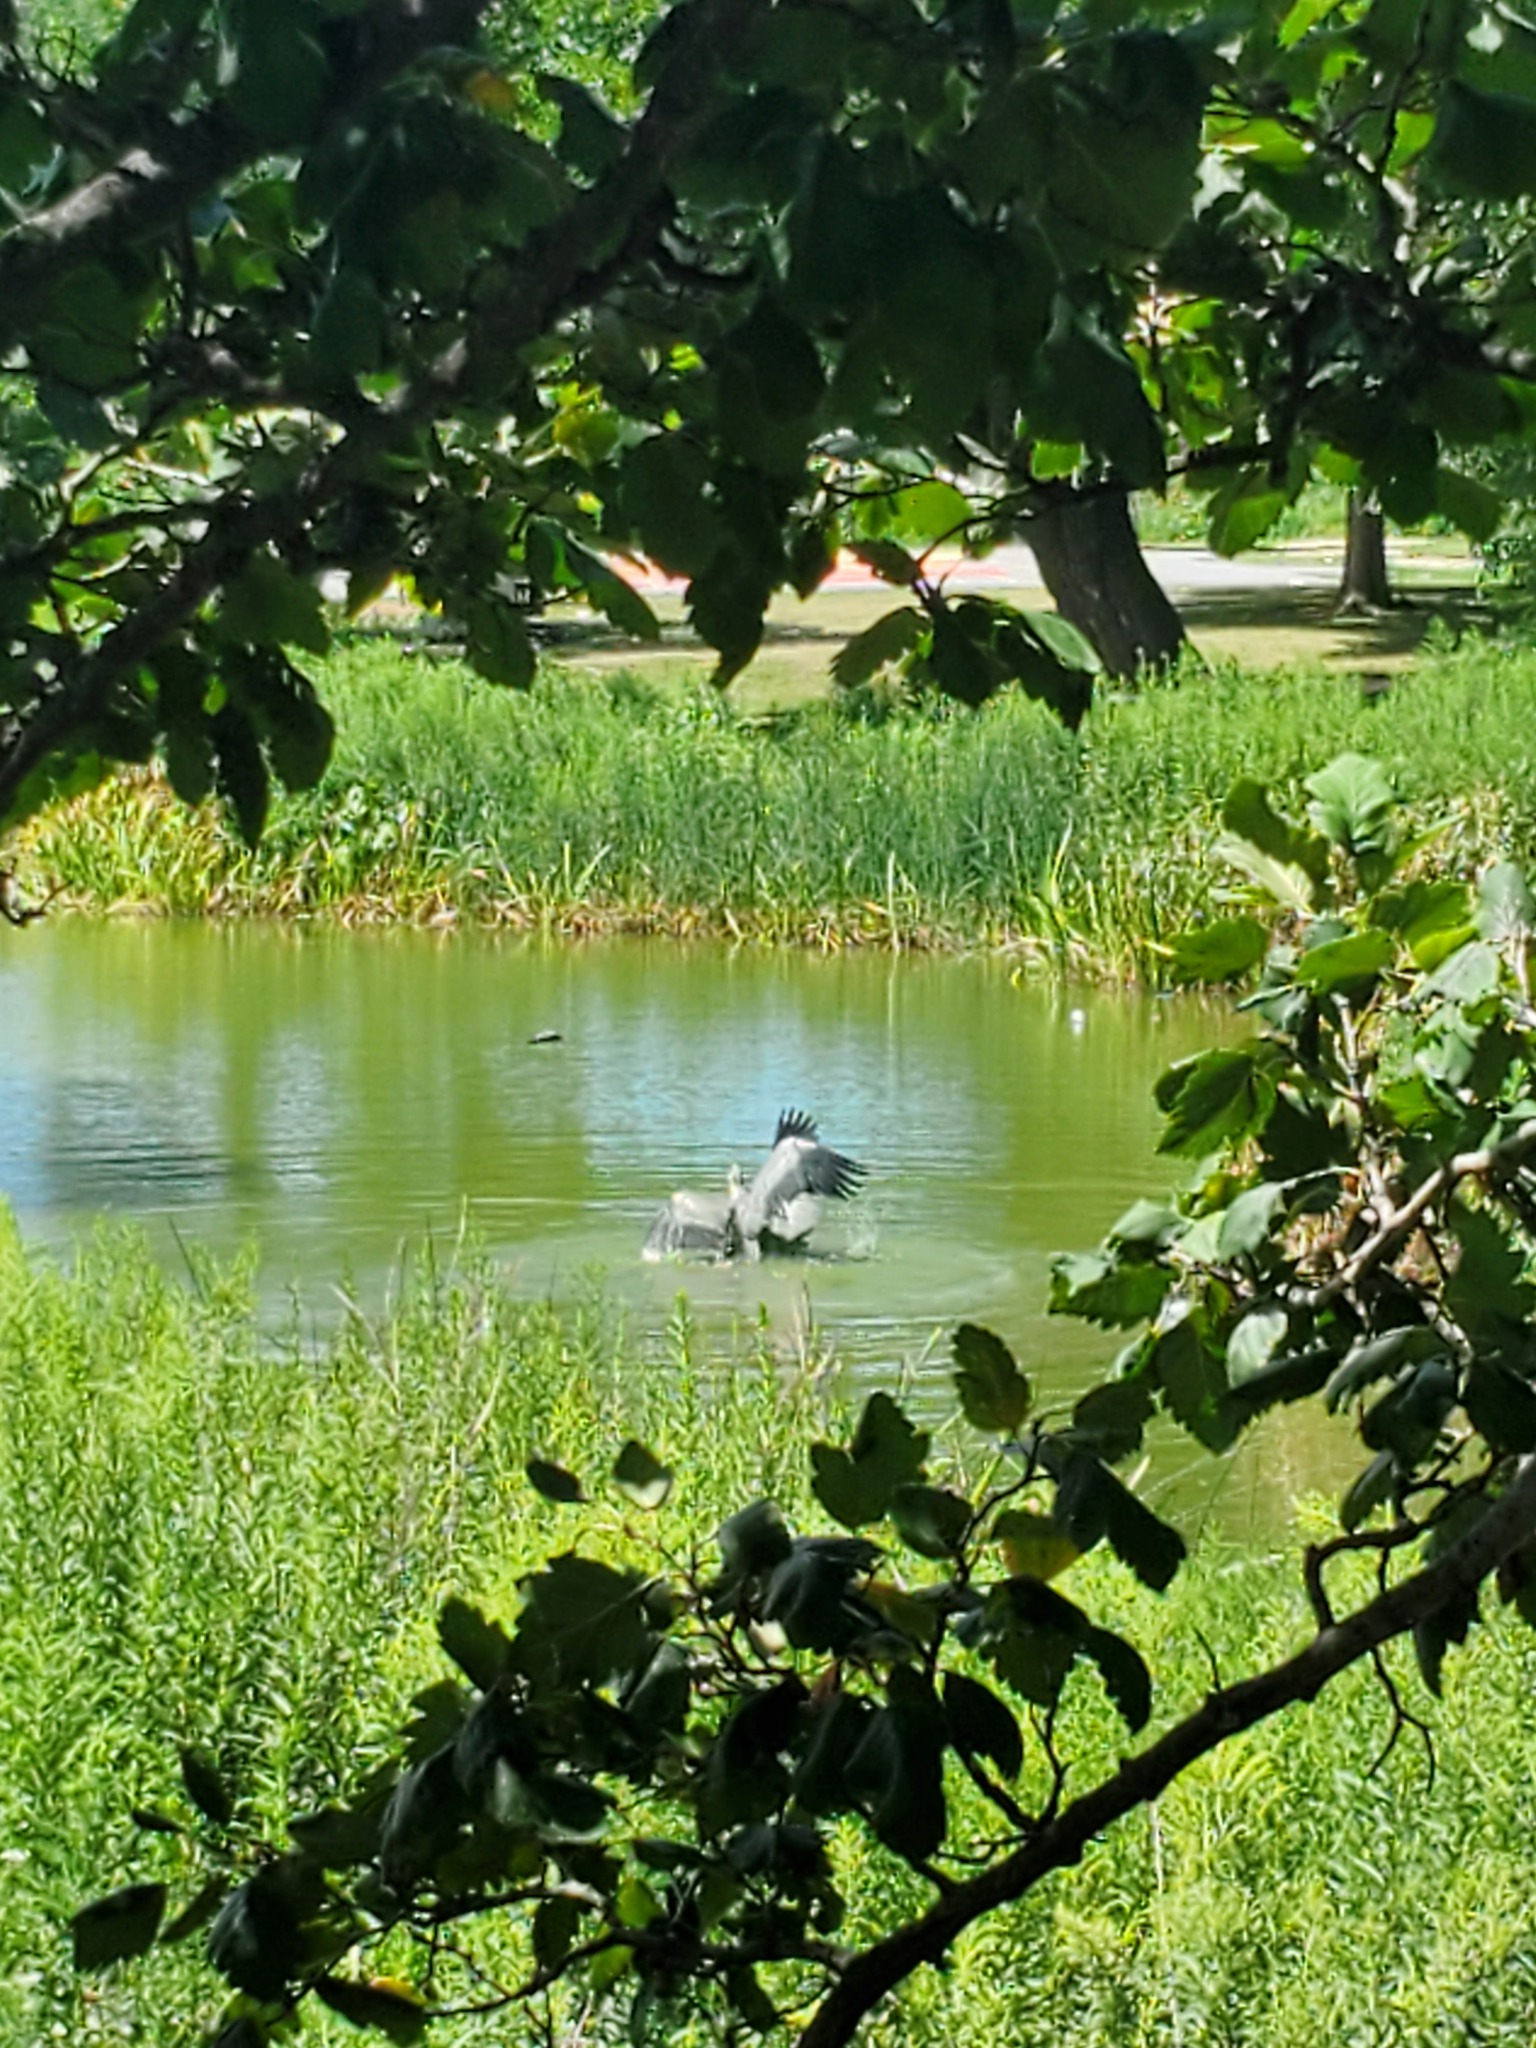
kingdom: Animalia
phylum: Chordata
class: Aves
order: Pelecaniformes
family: Ardeidae
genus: Ardea
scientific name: Ardea herodias
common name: Great blue heron
